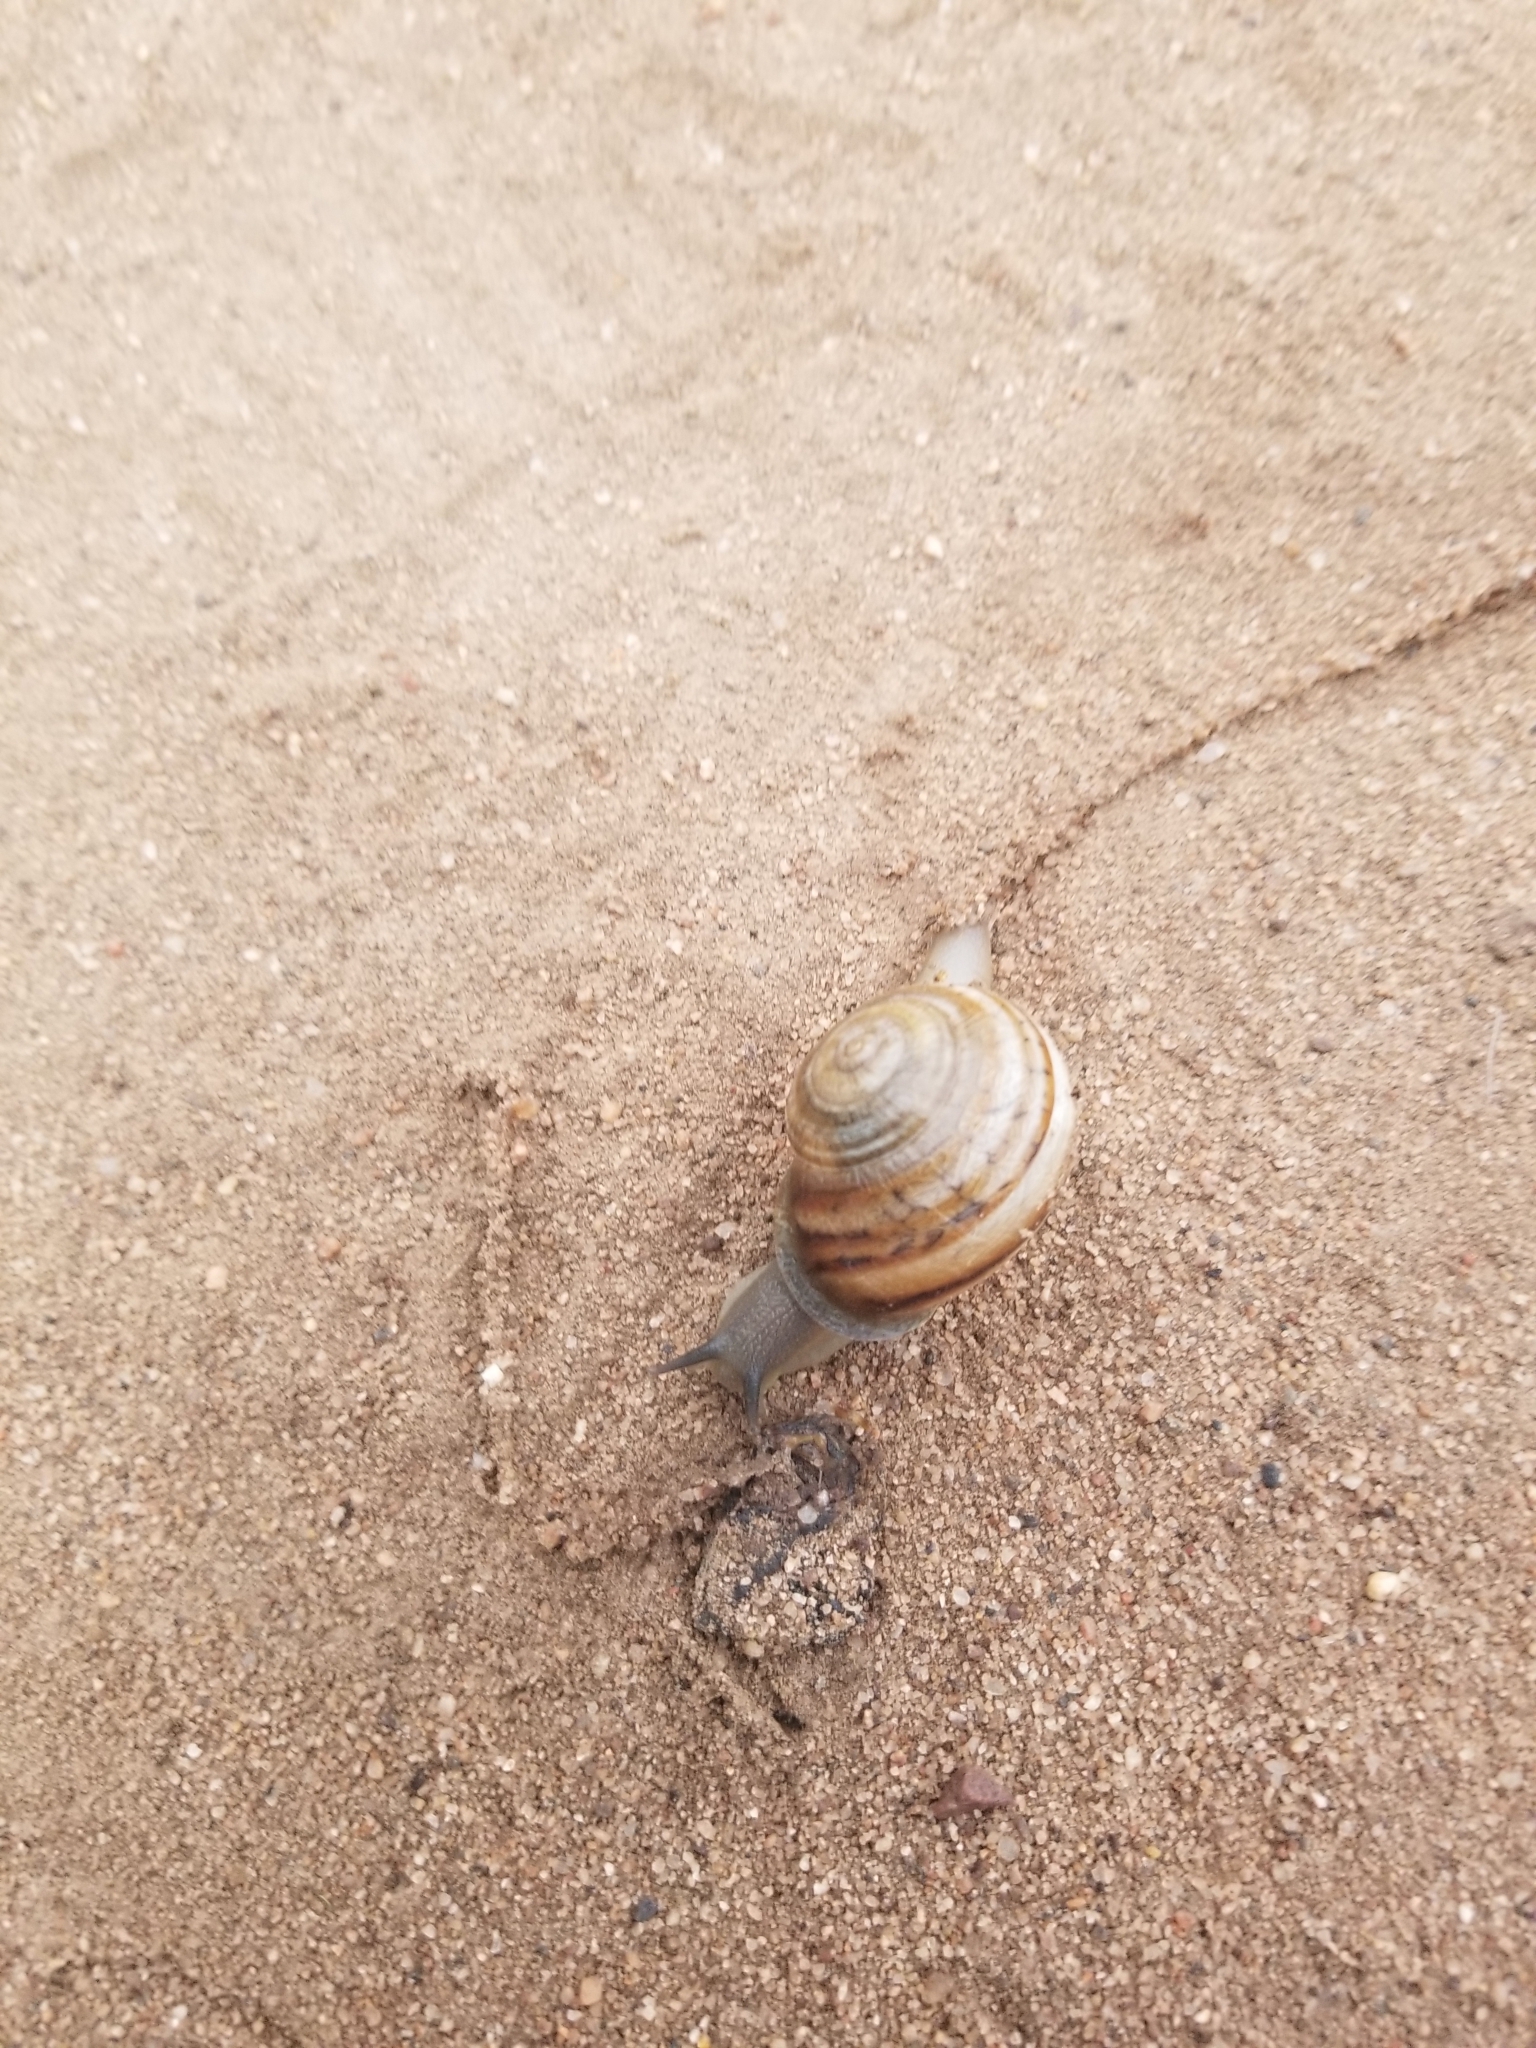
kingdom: Animalia
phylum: Mollusca
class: Gastropoda
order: Stylommatophora
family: Helicidae
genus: Otala
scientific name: Otala lactea
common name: Milk snail
